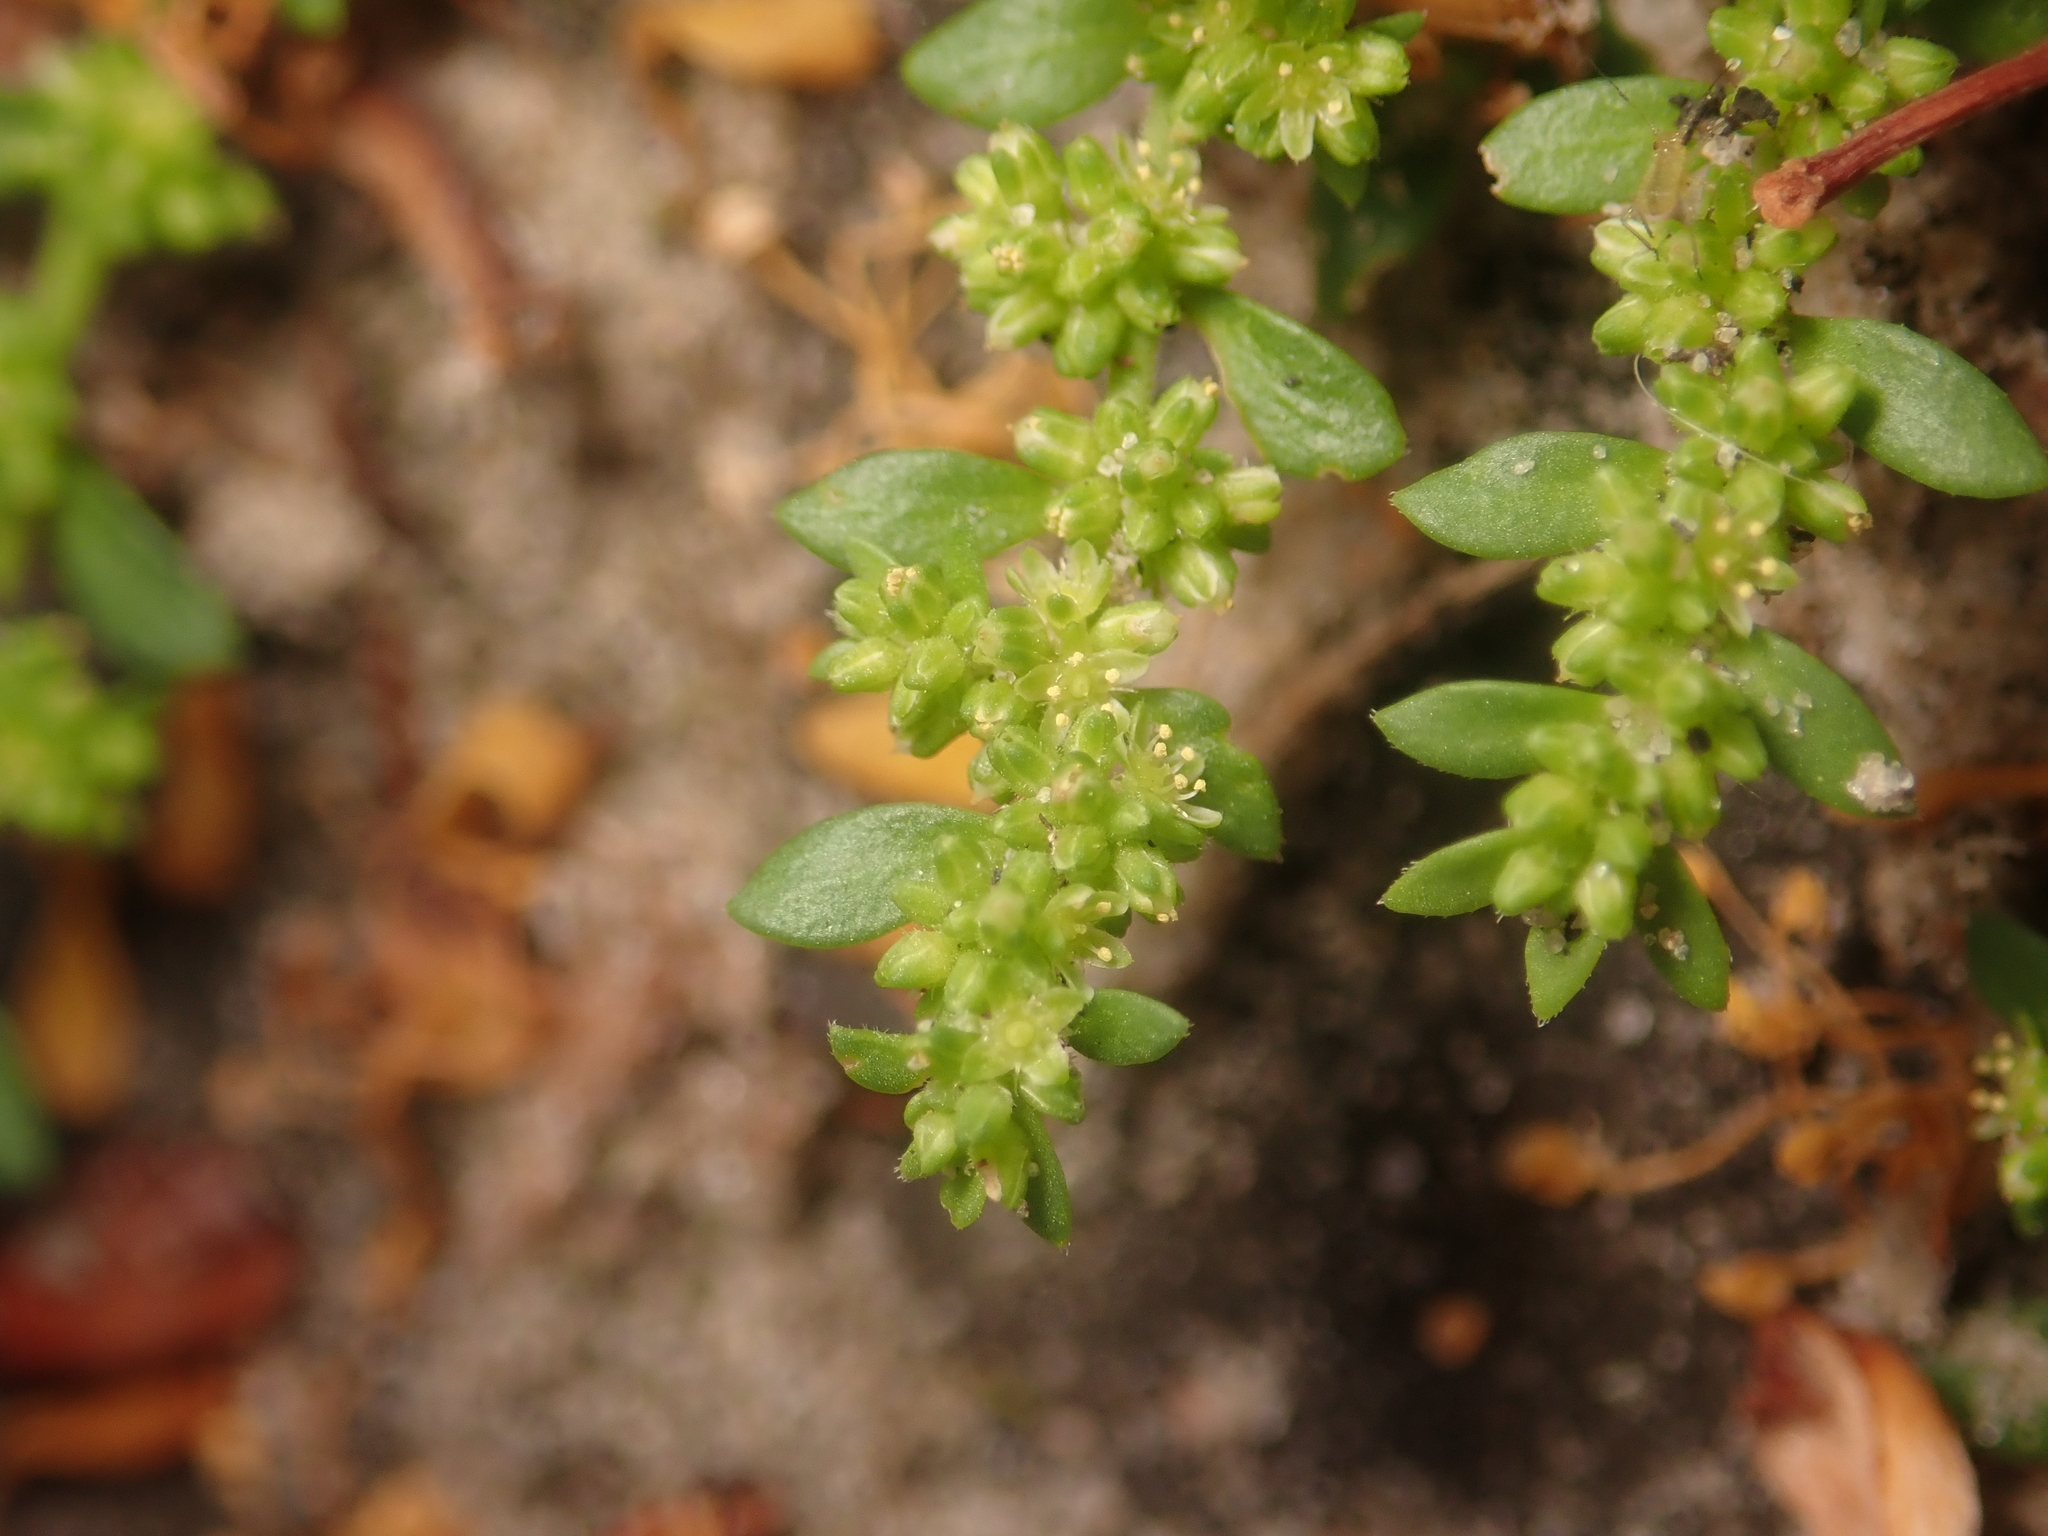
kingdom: Plantae
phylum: Tracheophyta
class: Magnoliopsida
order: Caryophyllales
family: Caryophyllaceae
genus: Herniaria
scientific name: Herniaria glabra
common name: Smooth rupturewort
